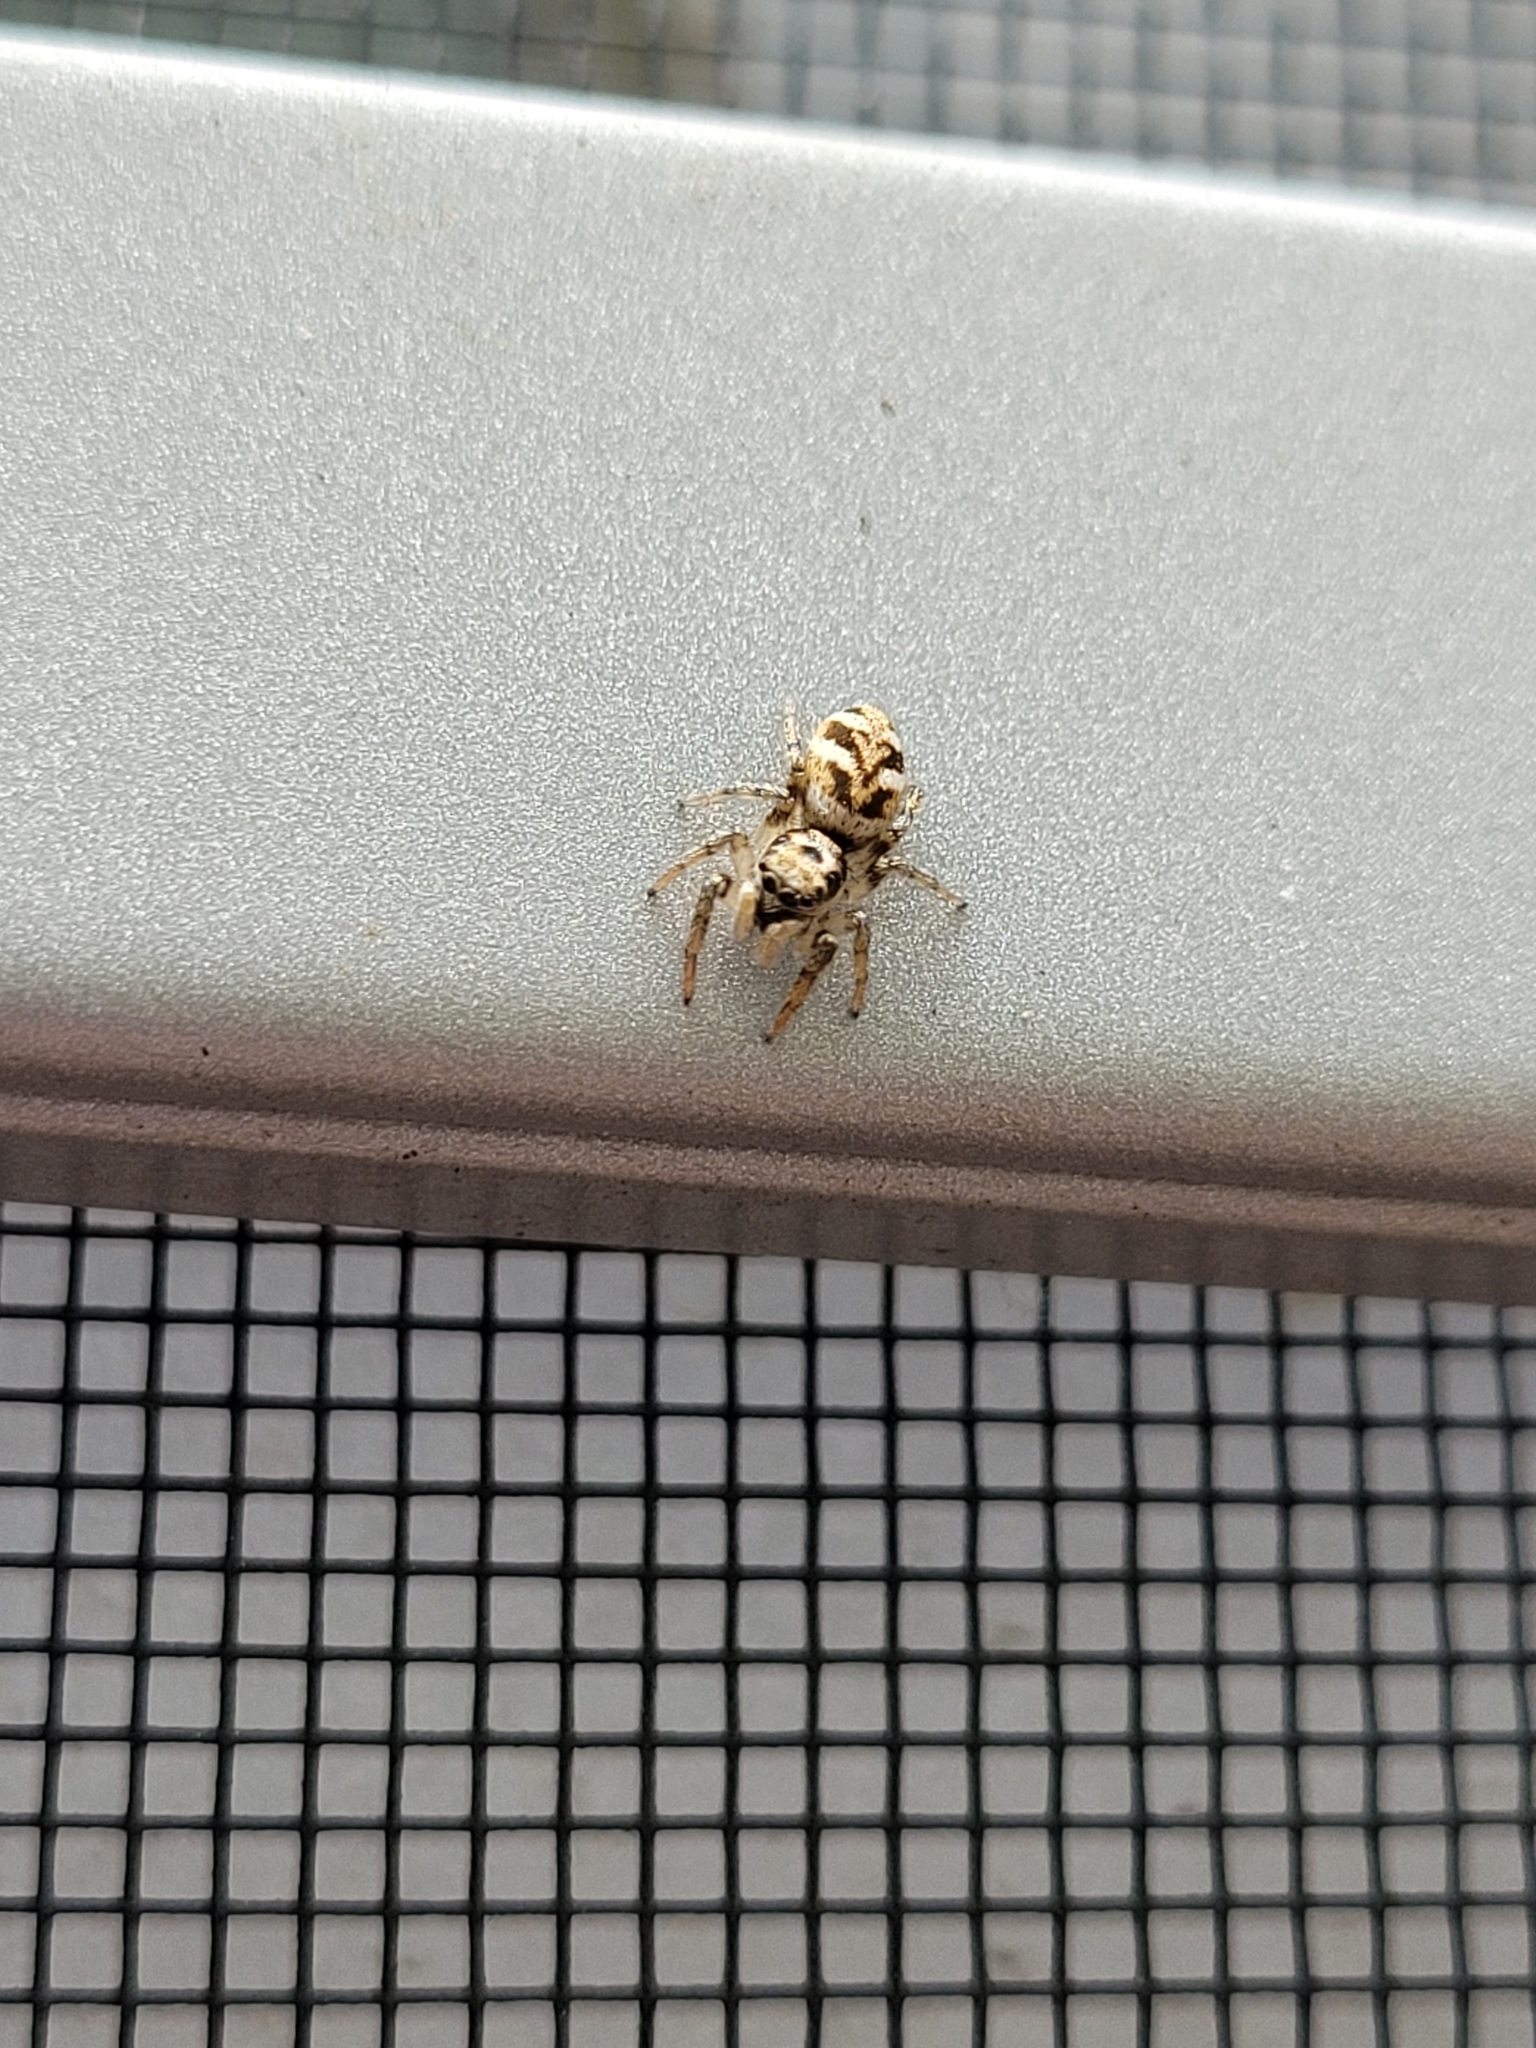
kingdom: Animalia
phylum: Arthropoda
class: Arachnida
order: Araneae
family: Salticidae
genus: Salticus
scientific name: Salticus scenicus
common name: Zebra jumper
